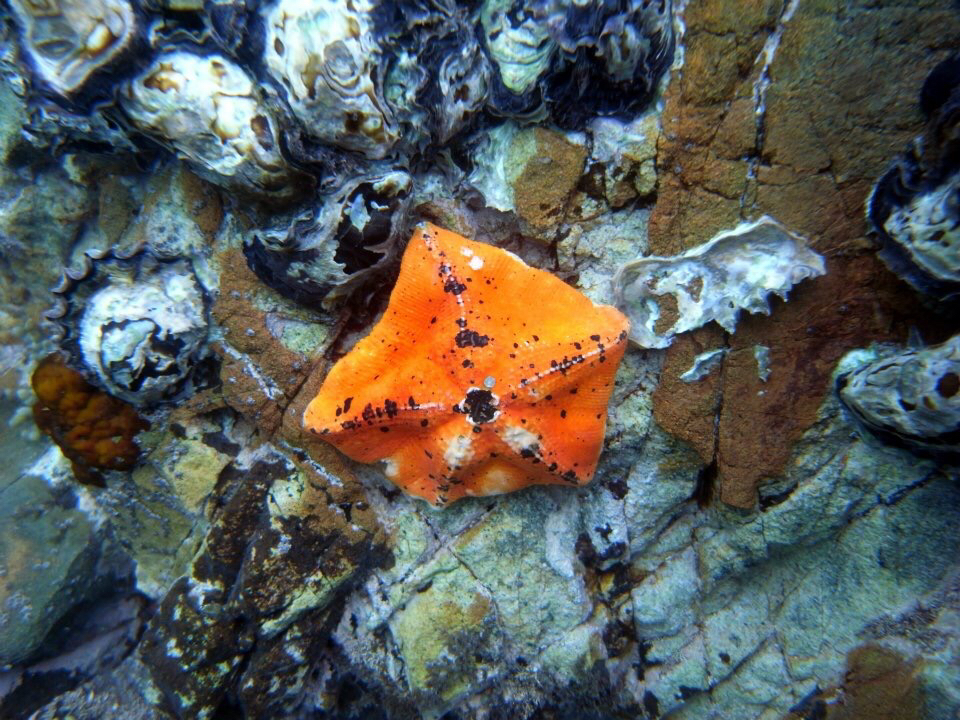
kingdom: Animalia
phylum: Echinodermata
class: Asteroidea
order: Valvatida
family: Asterinidae
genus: Stegnaster
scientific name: Stegnaster inflatus
